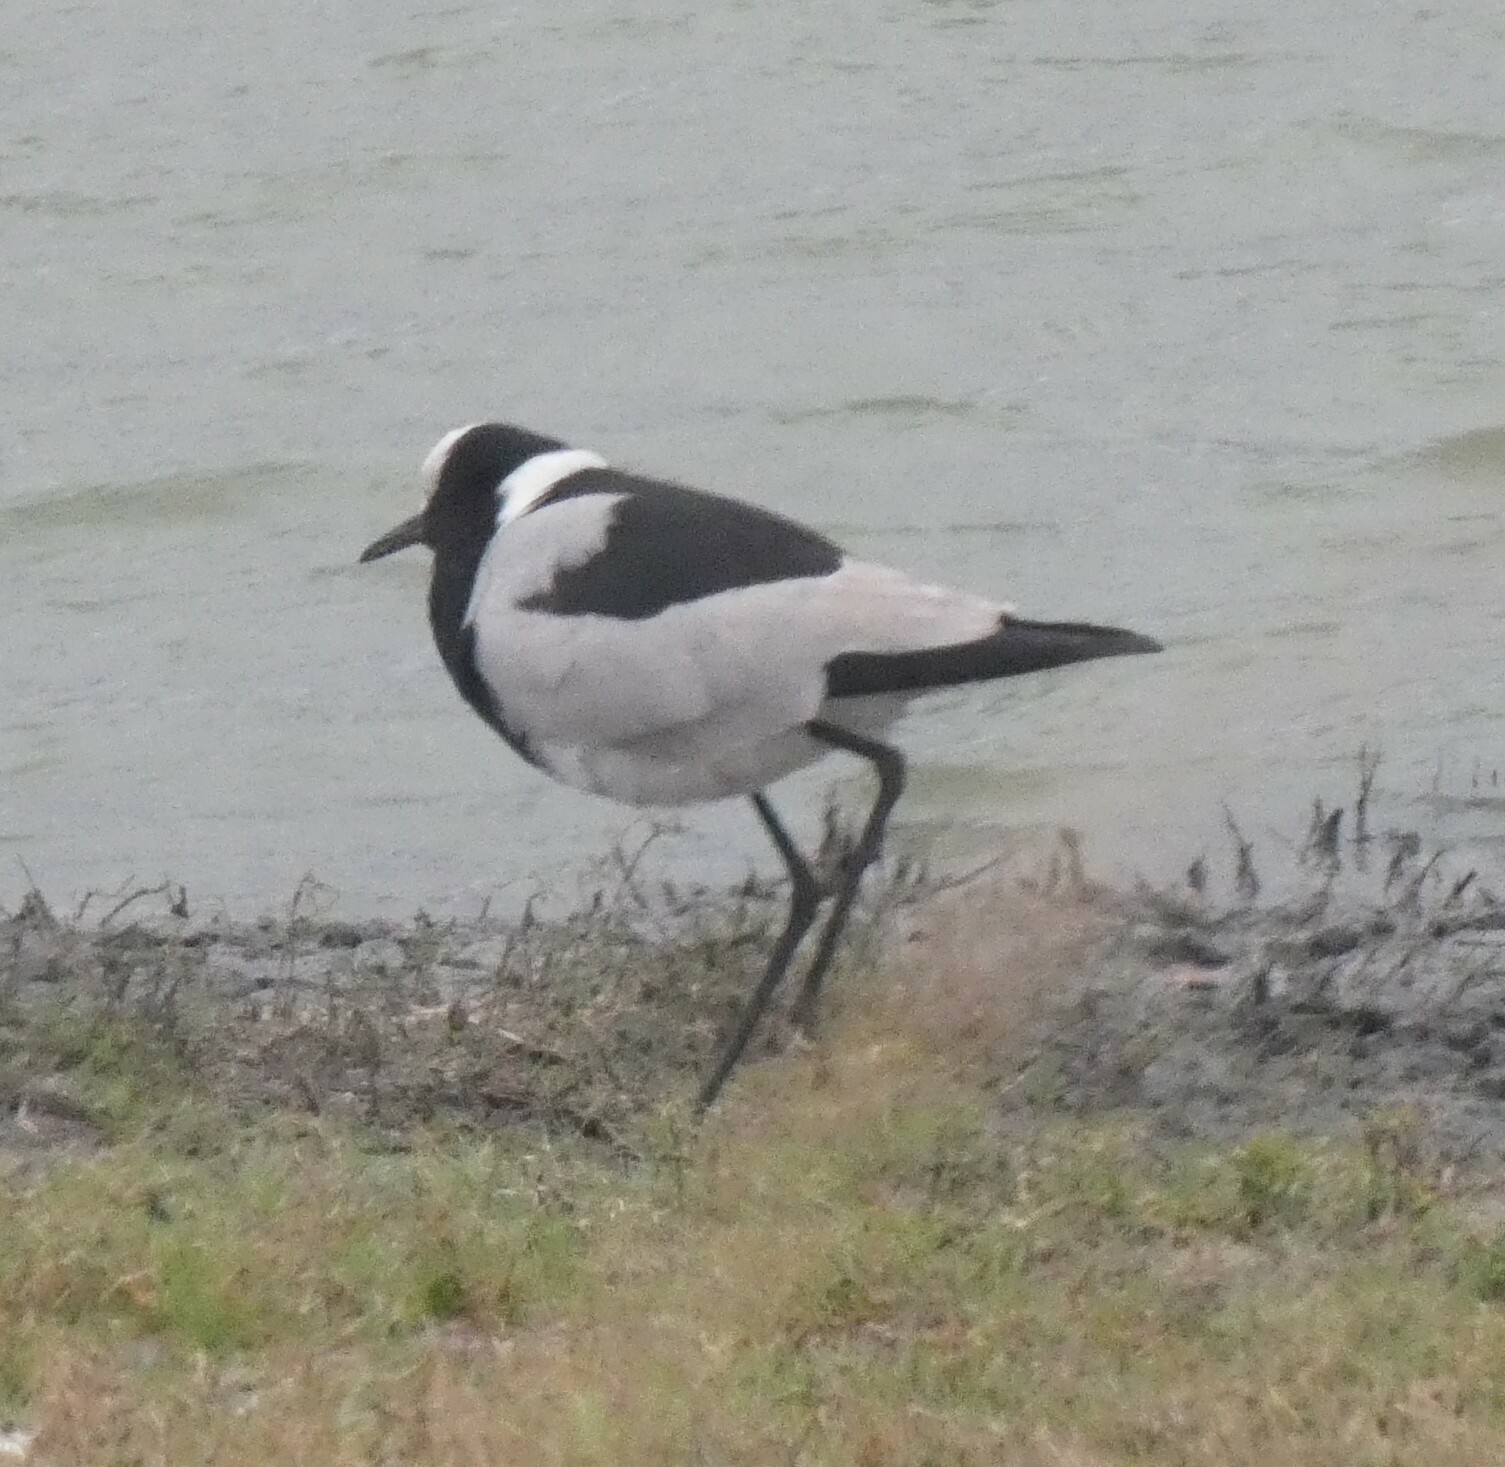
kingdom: Animalia
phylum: Chordata
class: Aves
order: Charadriiformes
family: Charadriidae
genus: Vanellus
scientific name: Vanellus armatus
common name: Blacksmith lapwing
